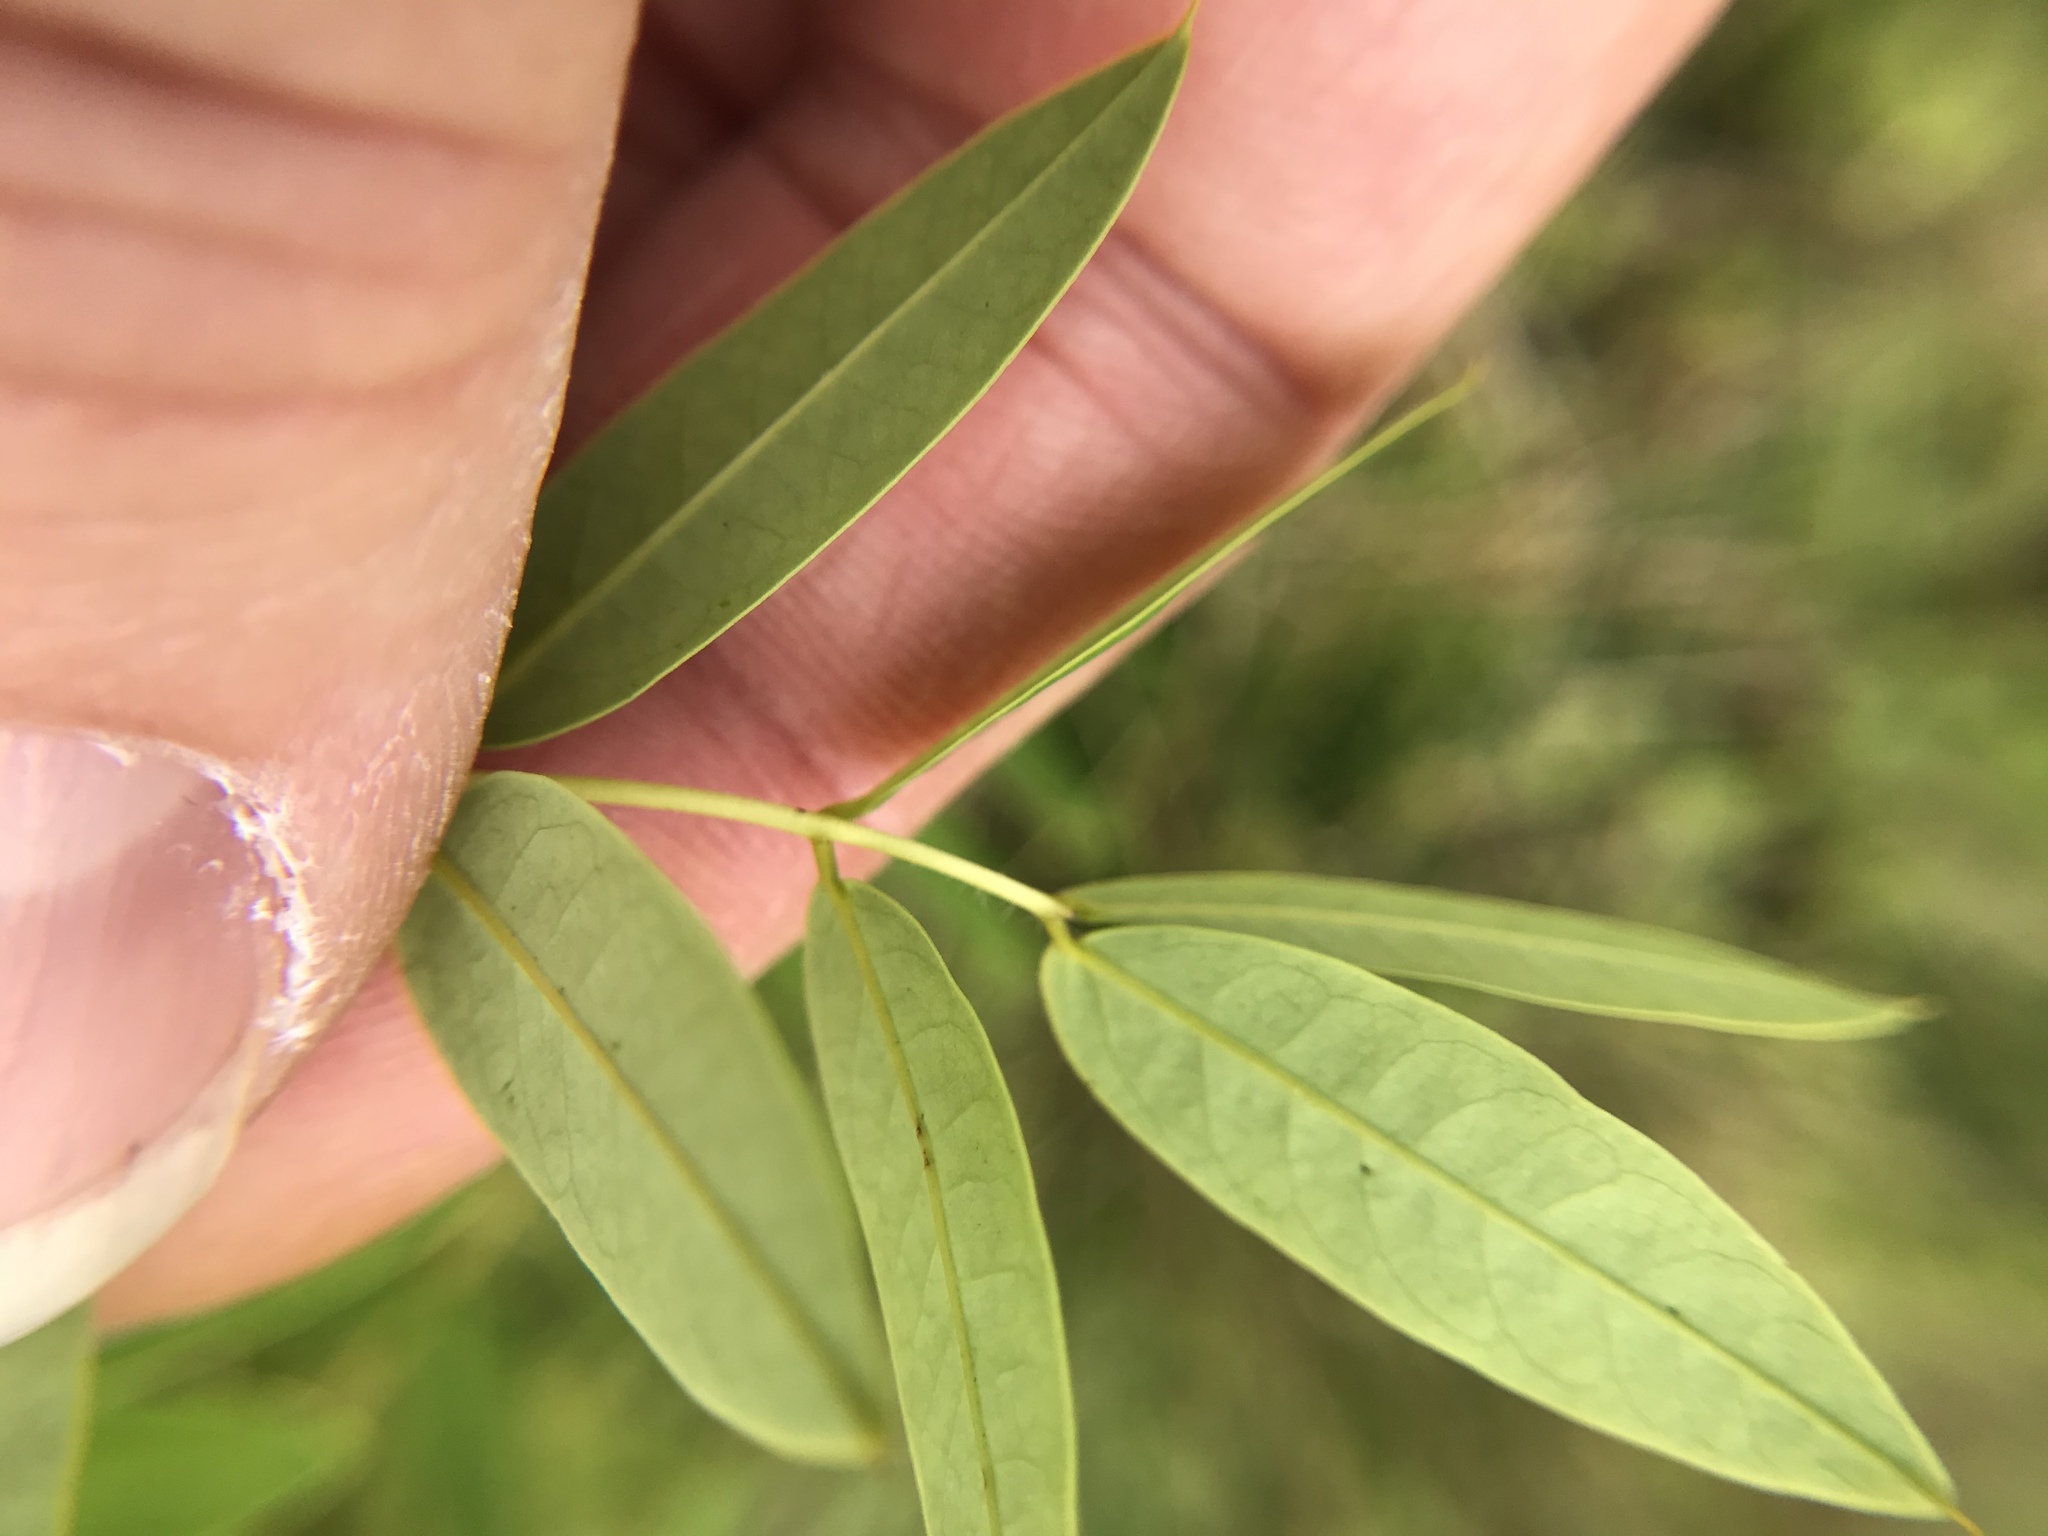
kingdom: Plantae
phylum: Tracheophyta
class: Magnoliopsida
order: Fabales
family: Fabaceae
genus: Senna
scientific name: Senna hebecarpa
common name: Wild senna
